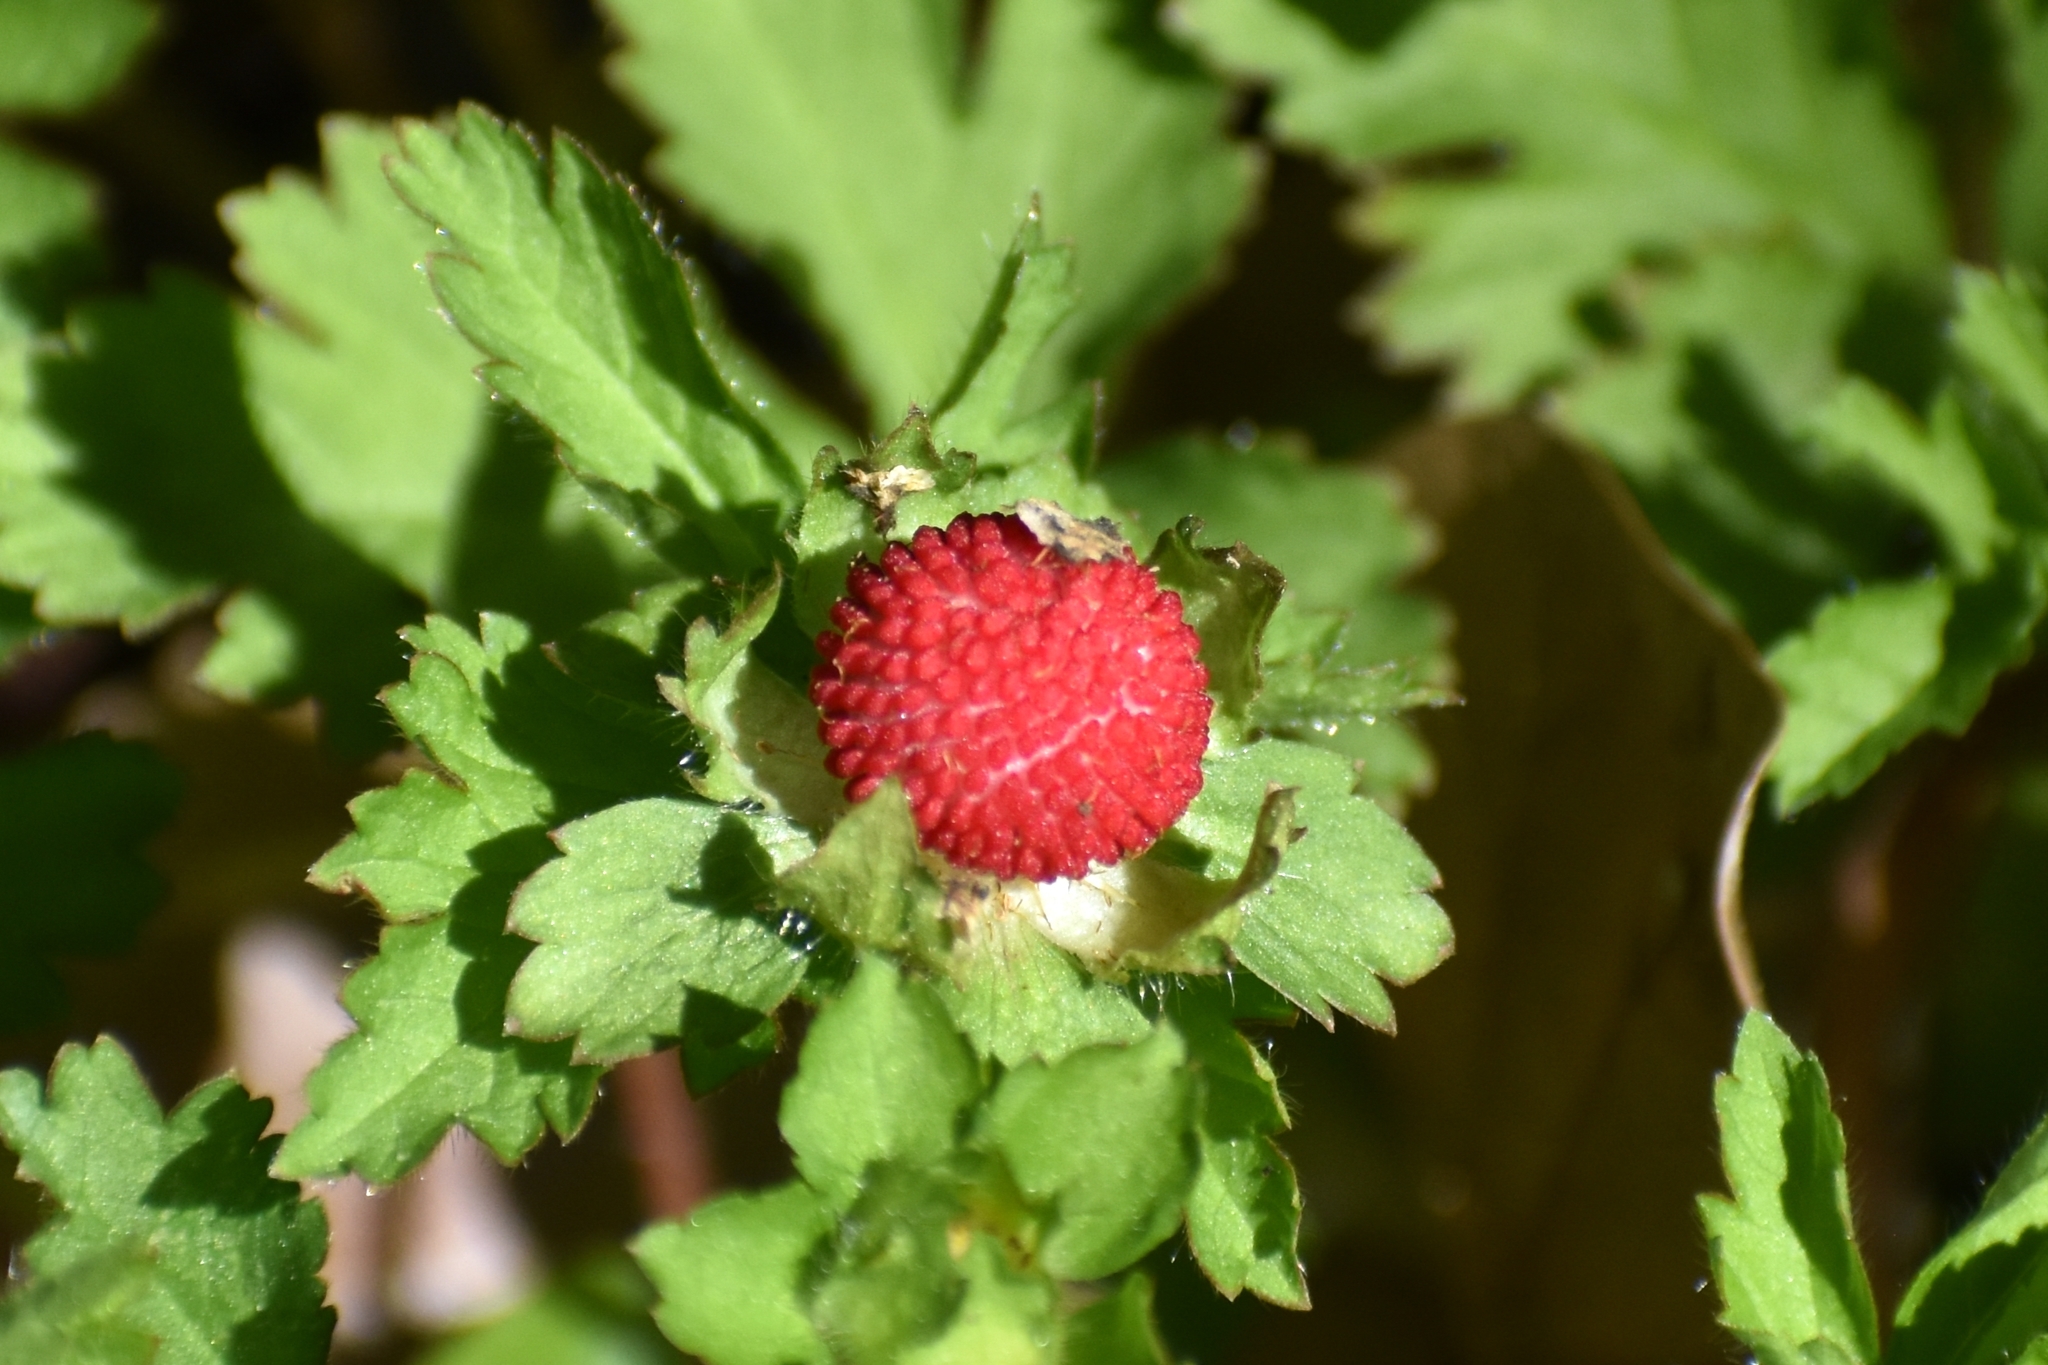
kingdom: Plantae
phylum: Tracheophyta
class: Magnoliopsida
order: Rosales
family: Rosaceae
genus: Potentilla
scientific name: Potentilla indica
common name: Yellow-flowered strawberry
